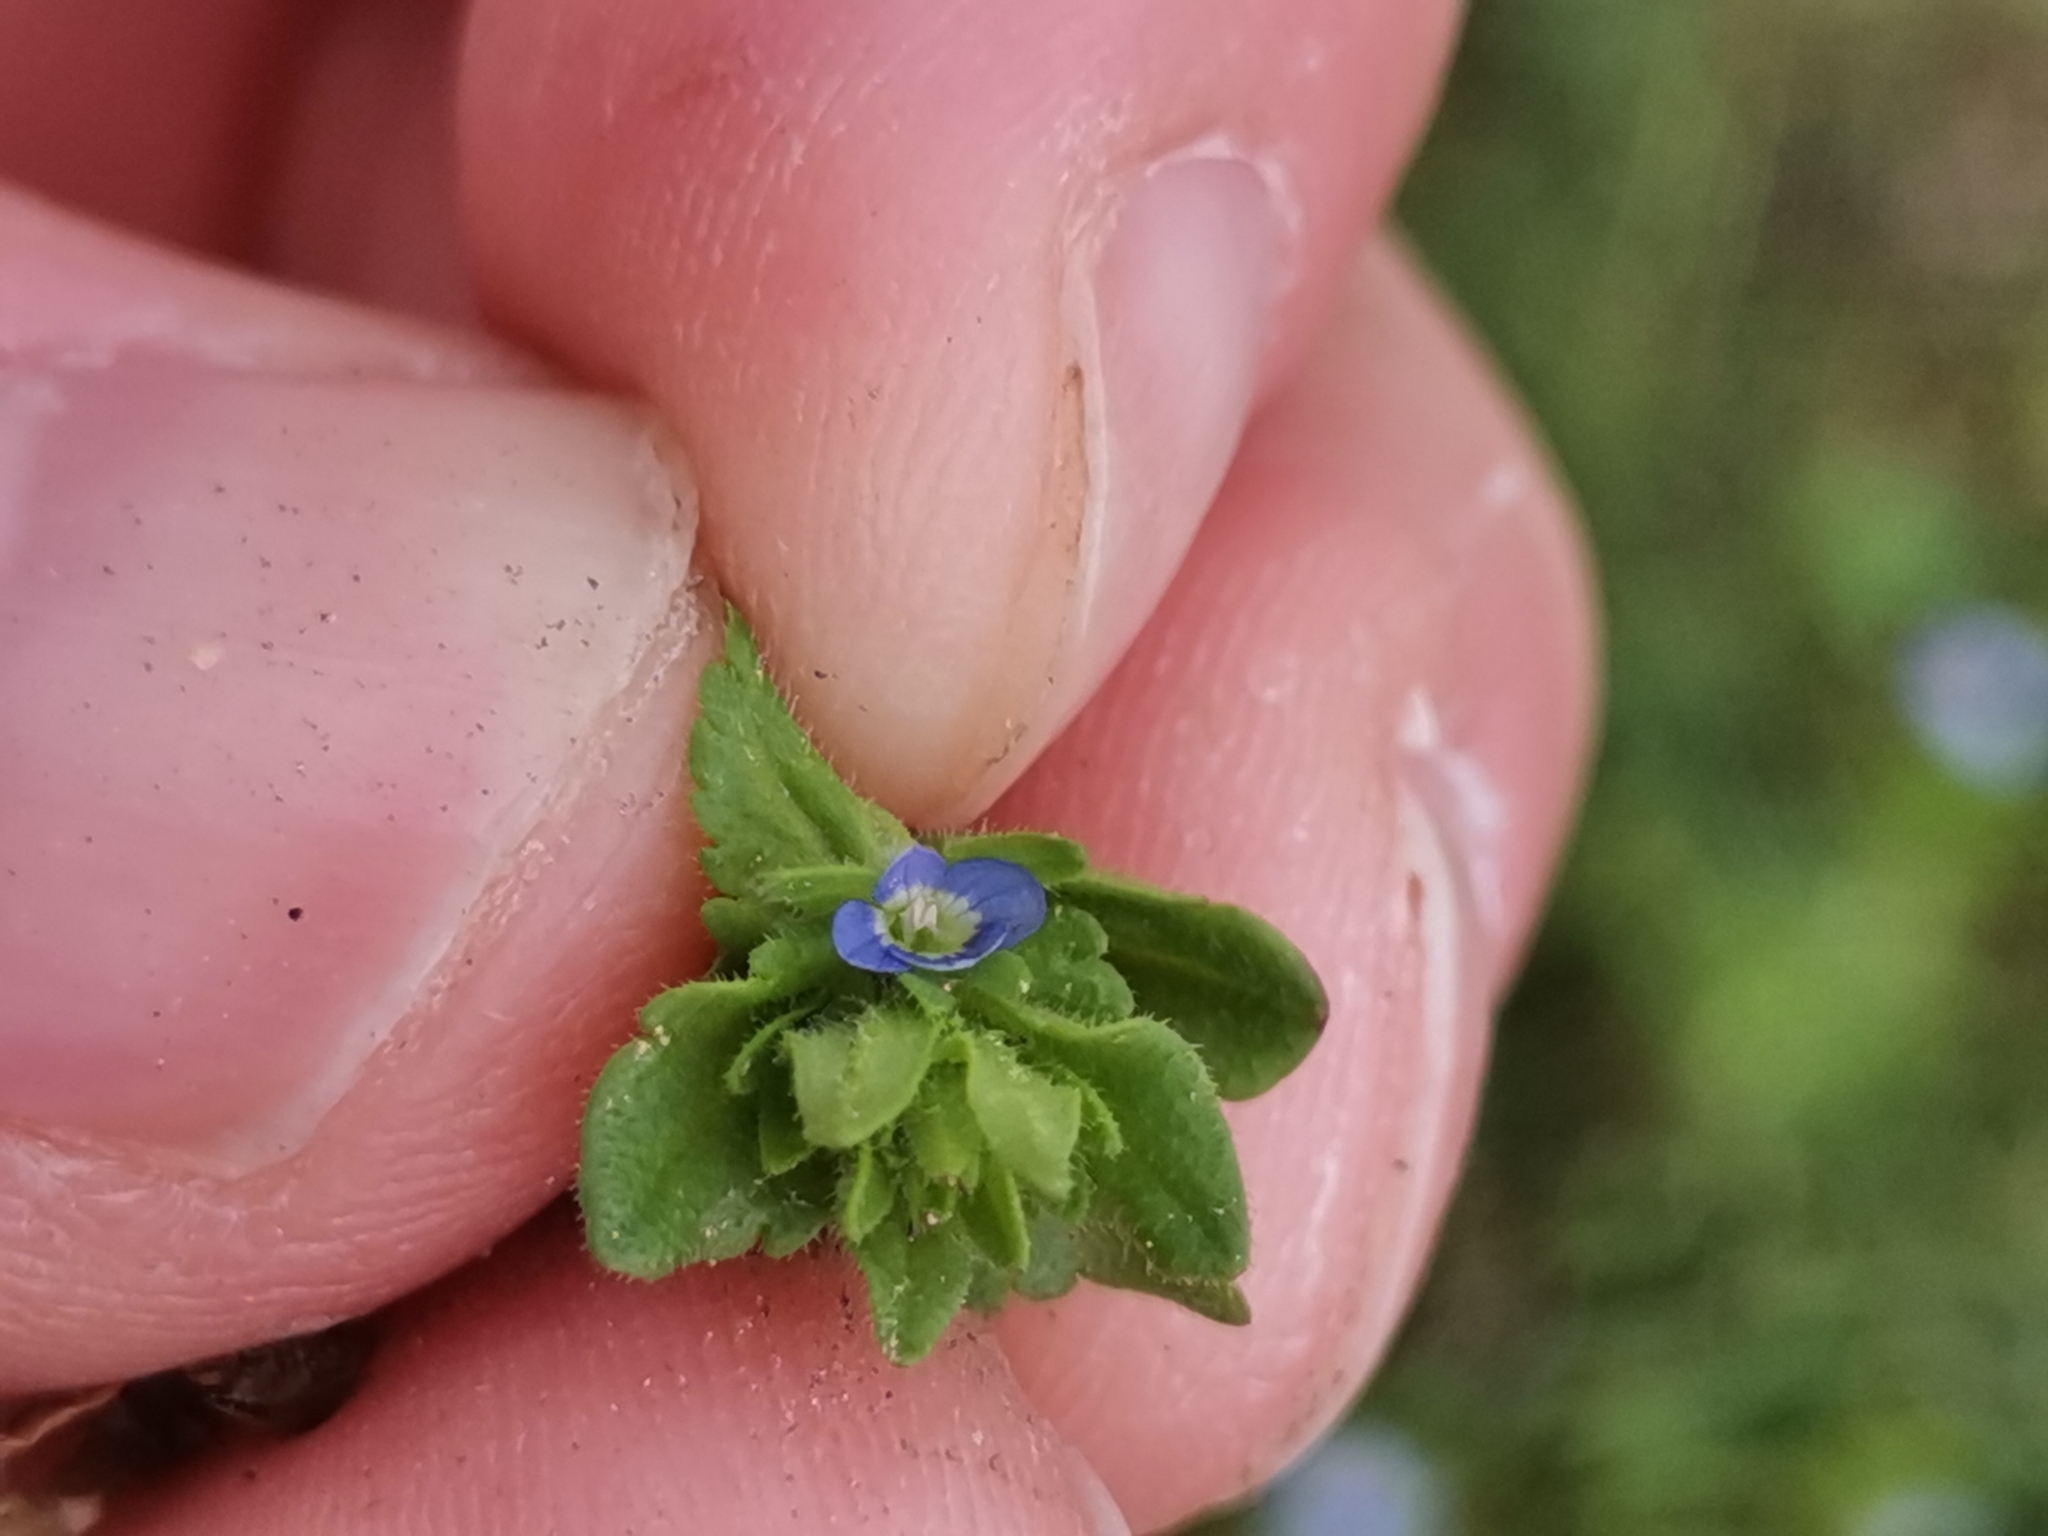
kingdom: Plantae
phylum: Tracheophyta
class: Magnoliopsida
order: Lamiales
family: Plantaginaceae
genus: Veronica
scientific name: Veronica arvensis
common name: Corn speedwell
